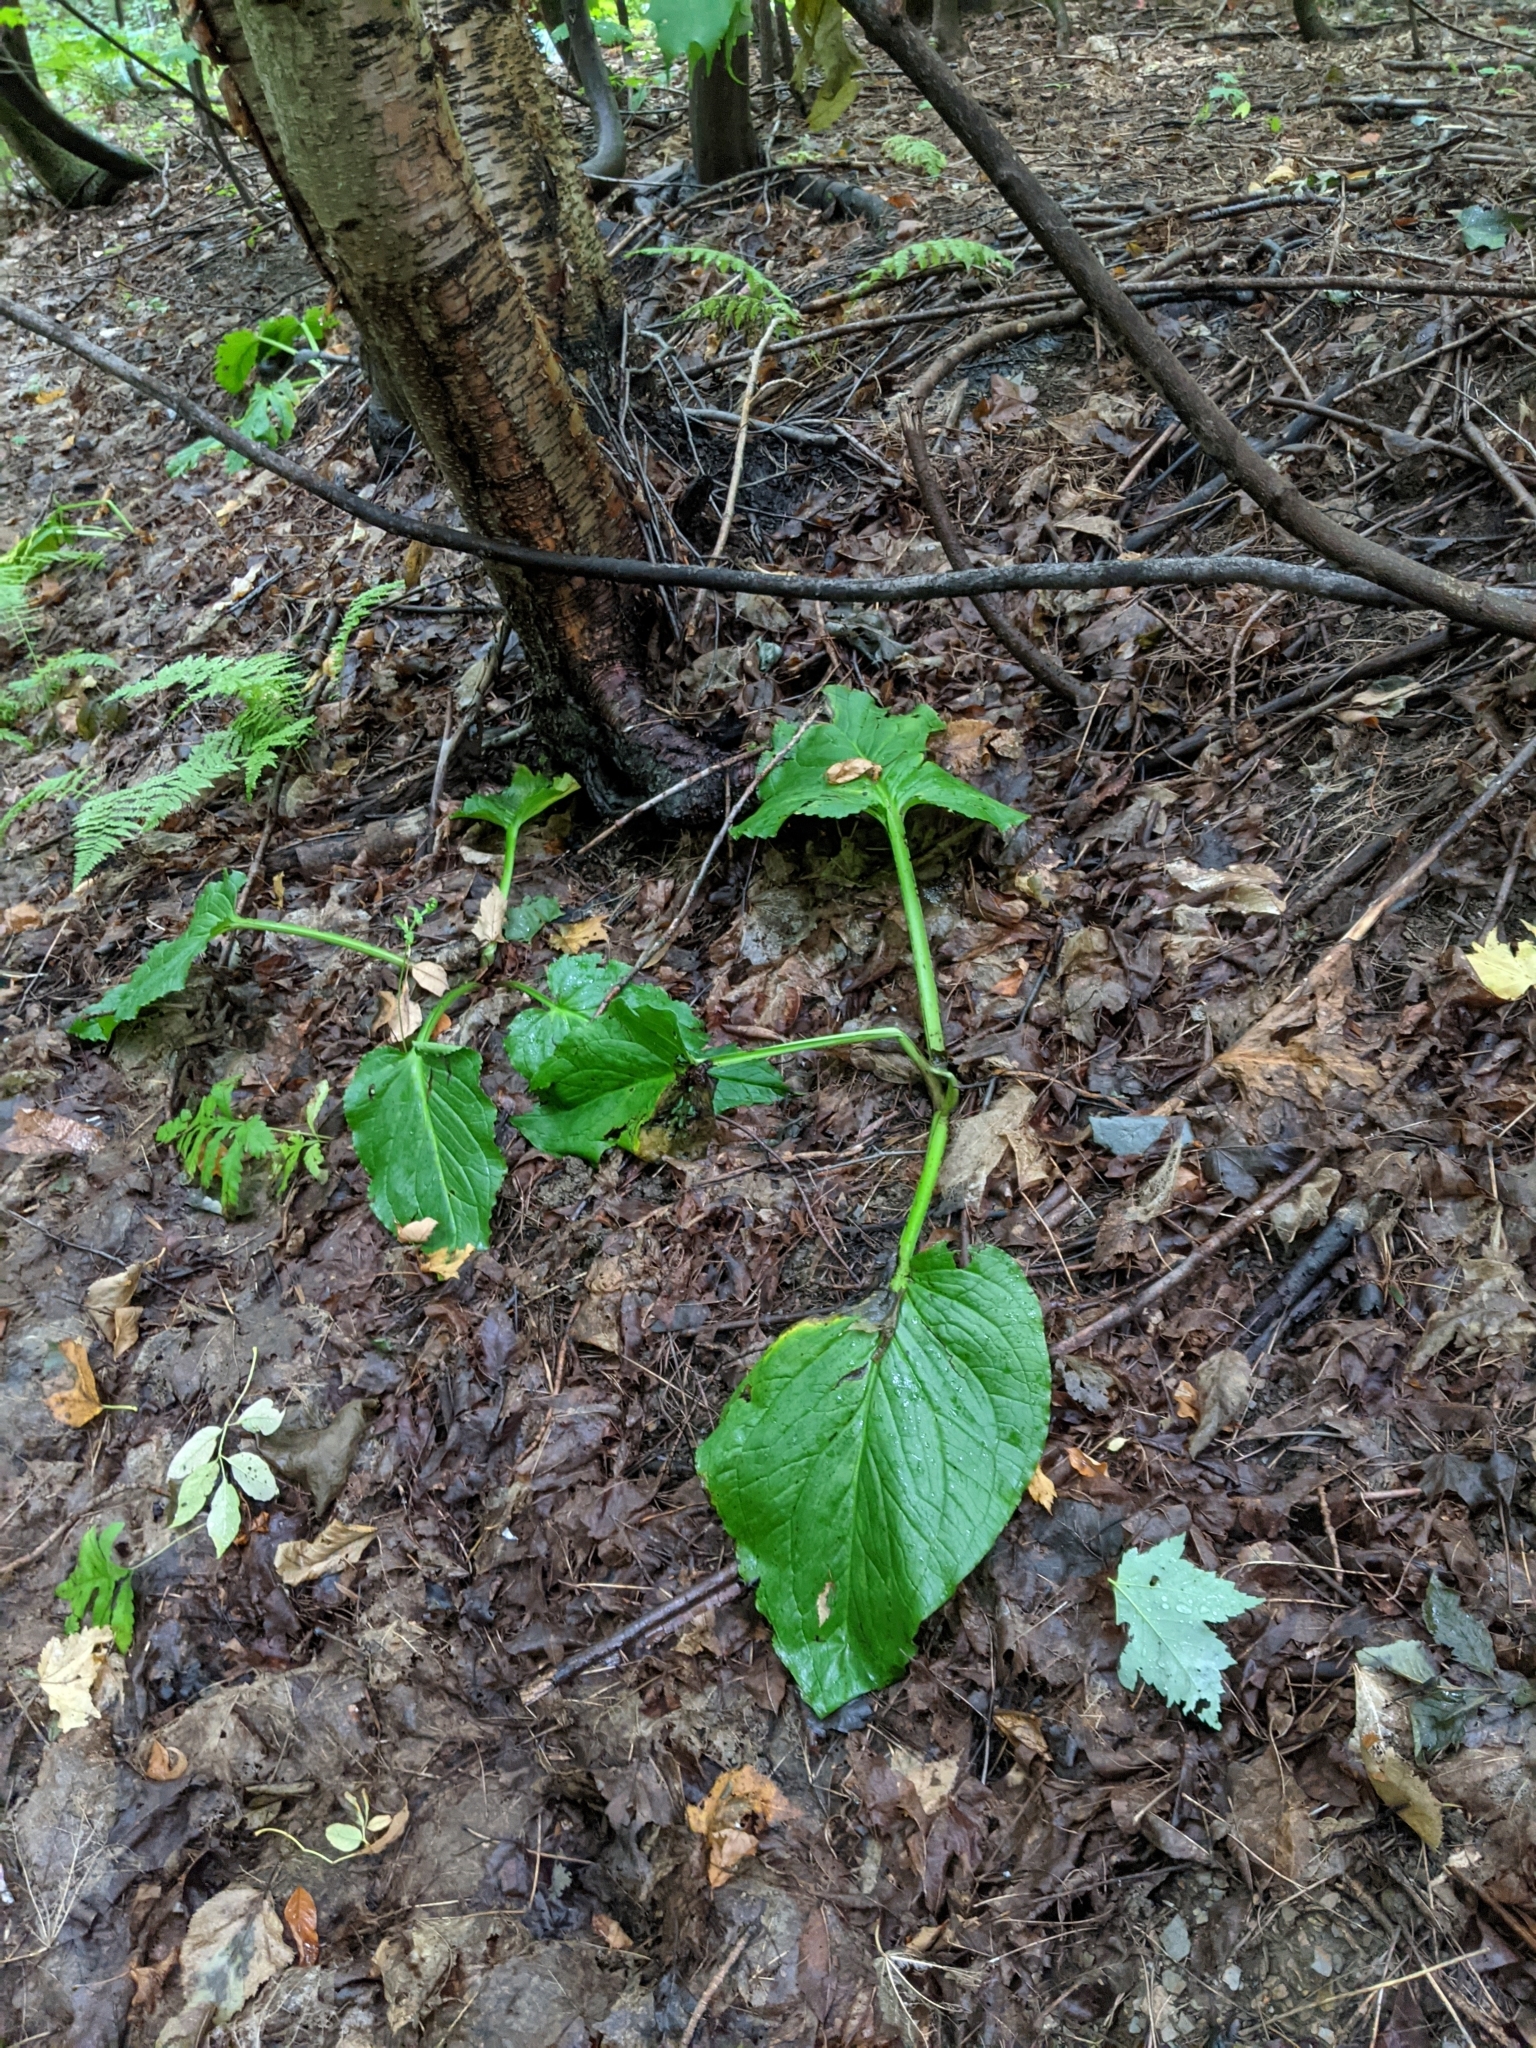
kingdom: Plantae
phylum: Tracheophyta
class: Liliopsida
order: Alismatales
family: Araceae
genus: Symplocarpus
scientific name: Symplocarpus foetidus
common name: Eastern skunk cabbage
